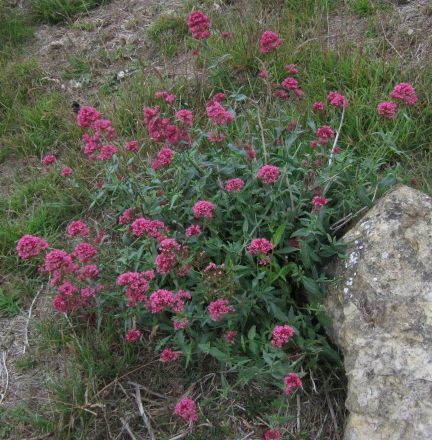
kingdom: Plantae
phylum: Tracheophyta
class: Magnoliopsida
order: Dipsacales
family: Caprifoliaceae
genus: Centranthus
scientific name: Centranthus ruber
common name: Red valerian
